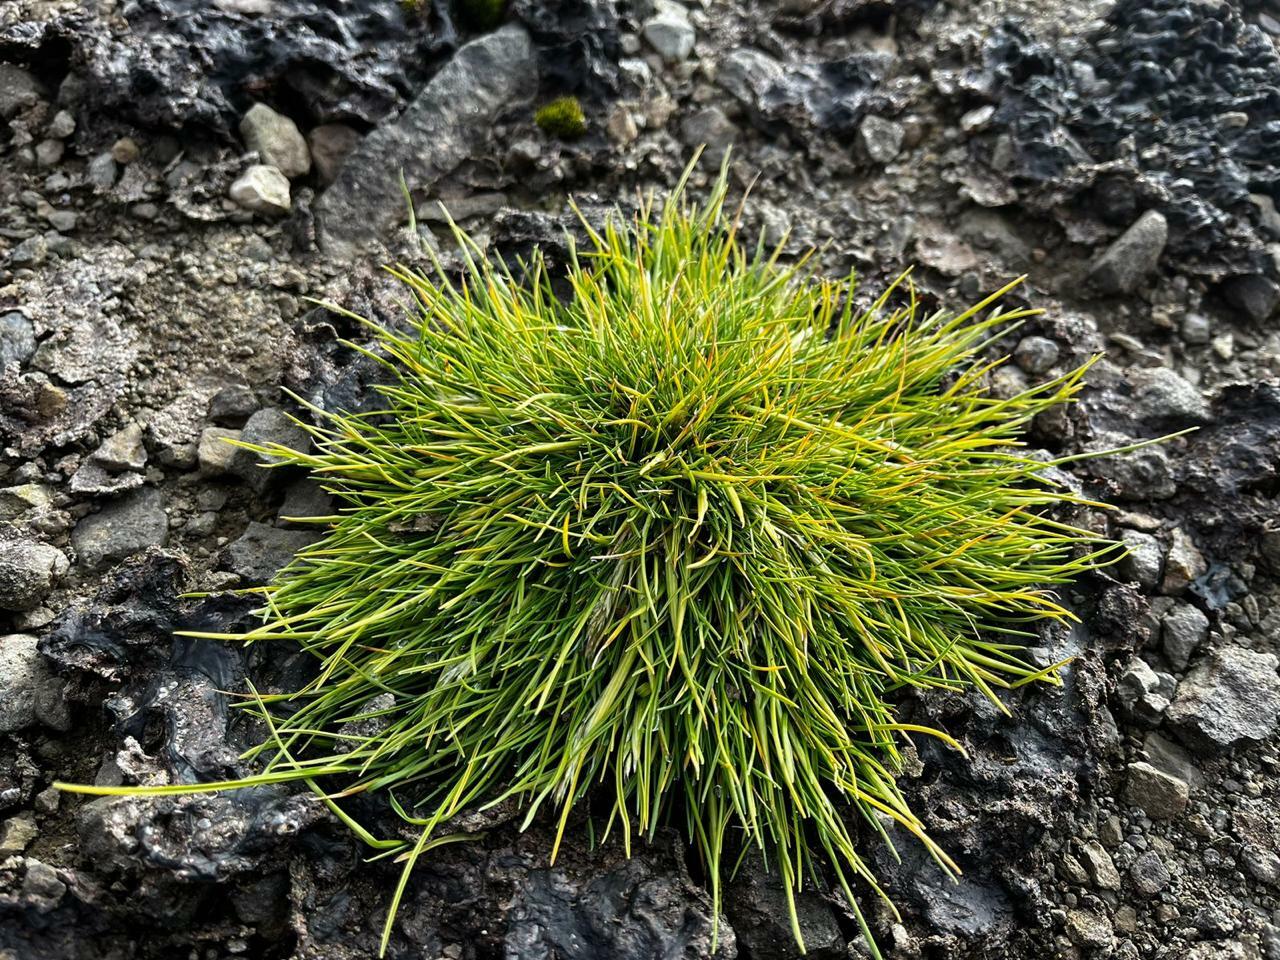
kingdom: Plantae
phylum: Tracheophyta
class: Liliopsida
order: Poales
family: Poaceae
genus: Deschampsia
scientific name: Deschampsia antarctica
